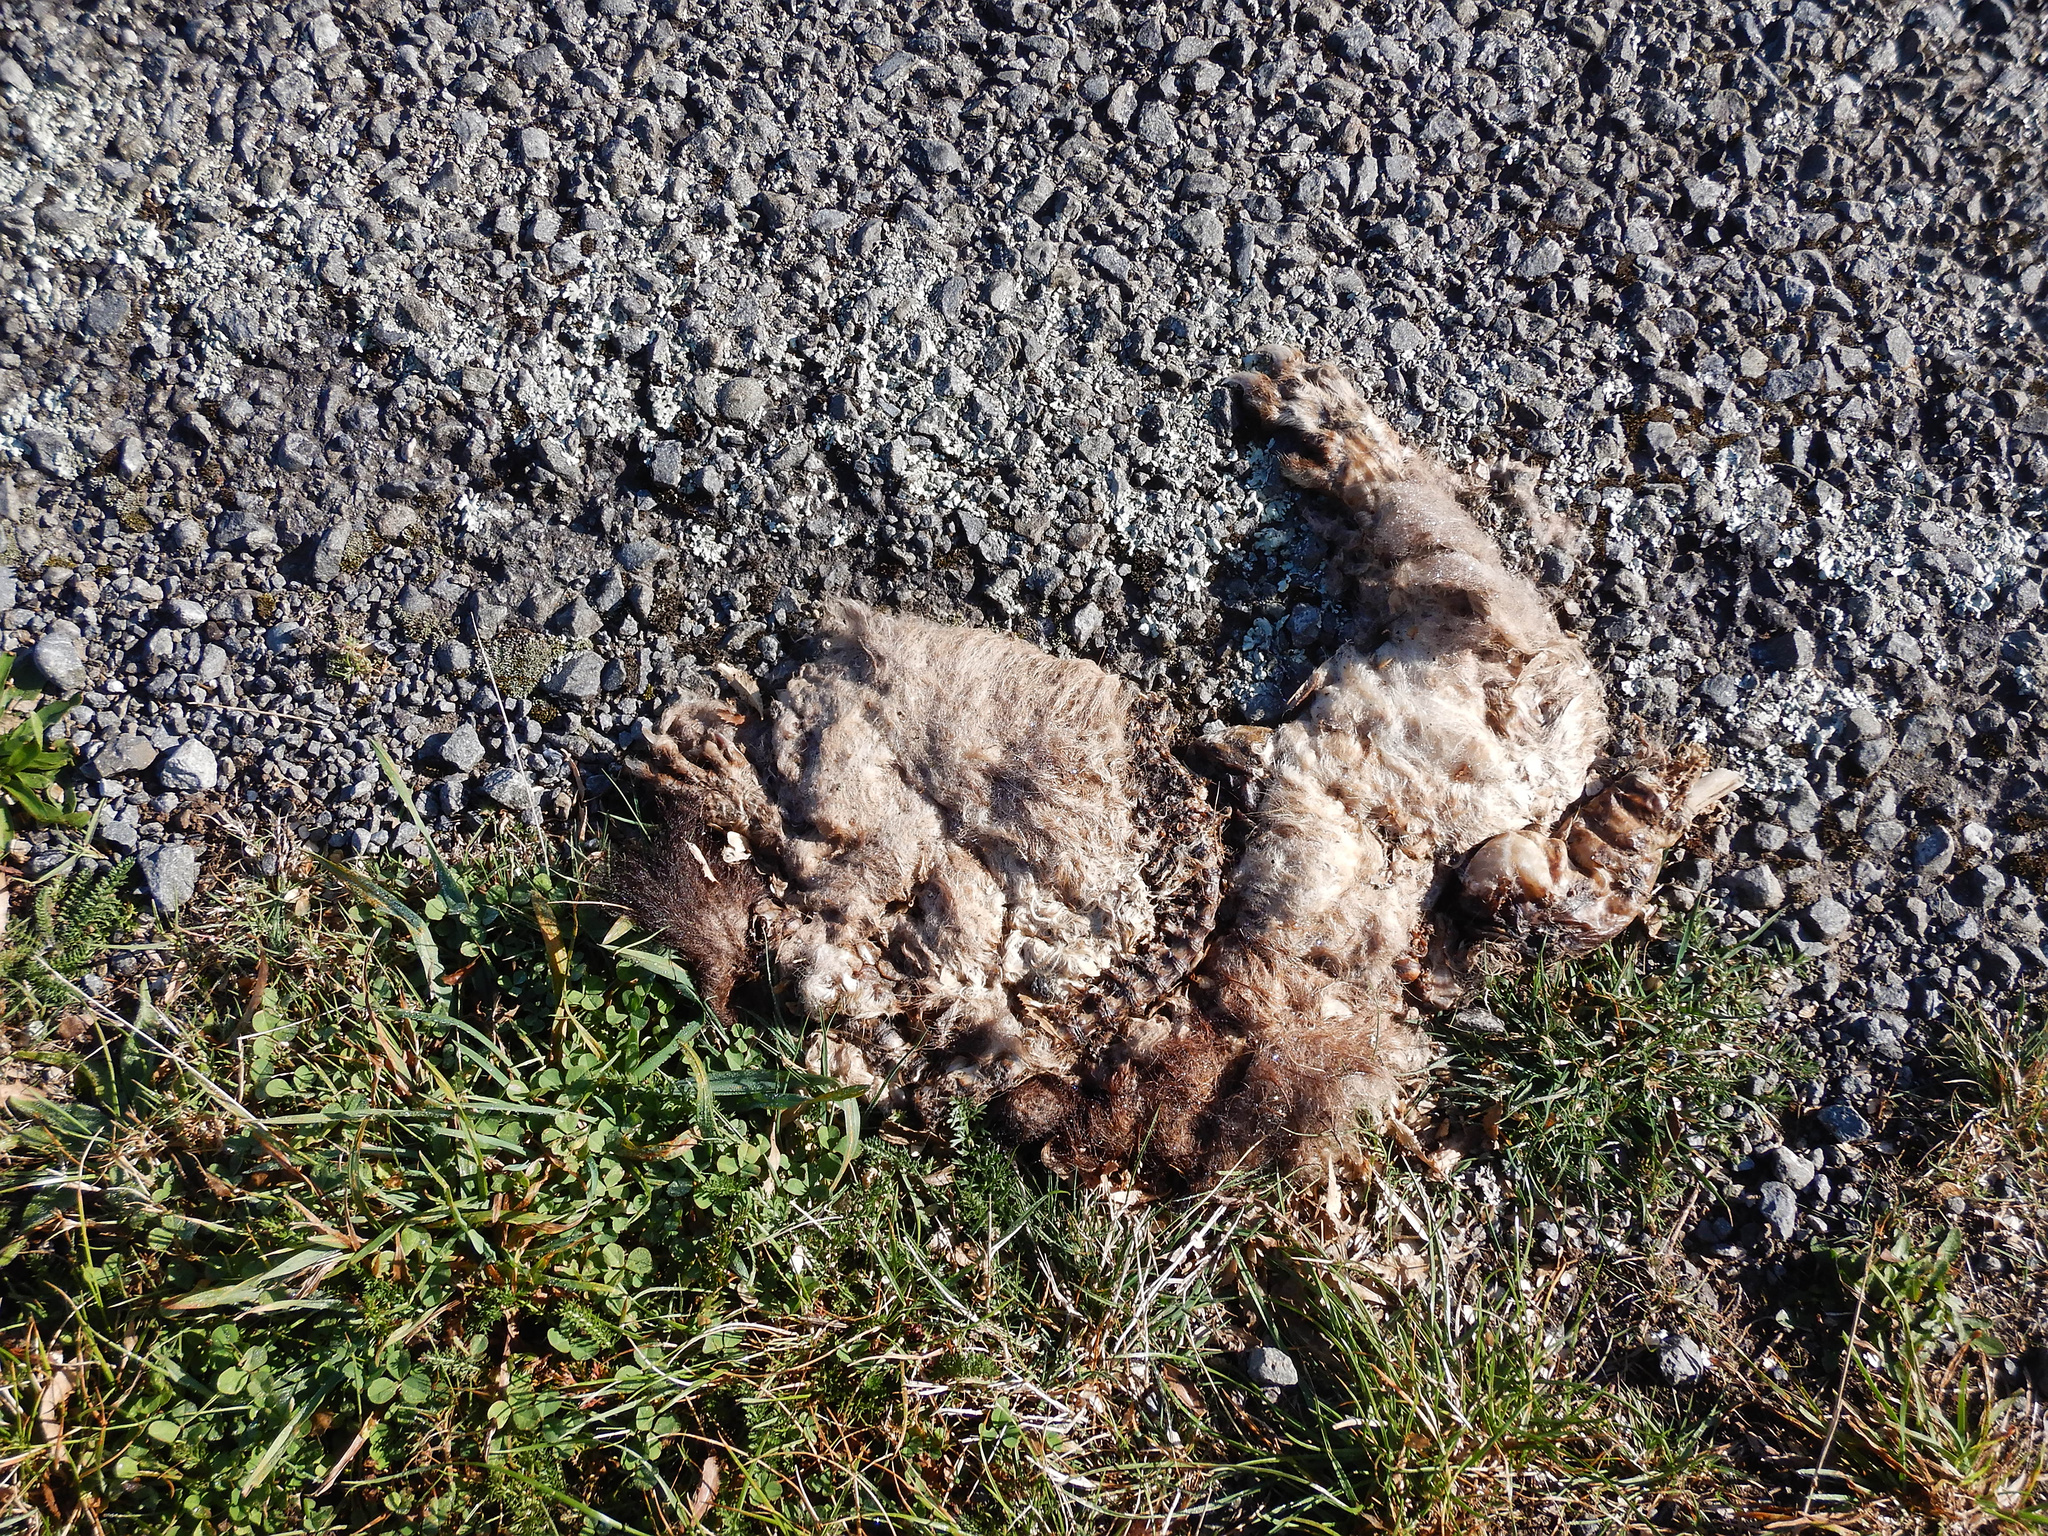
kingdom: Animalia
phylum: Chordata
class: Mammalia
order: Diprotodontia
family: Phalangeridae
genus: Trichosurus
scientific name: Trichosurus vulpecula
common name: Common brushtail
